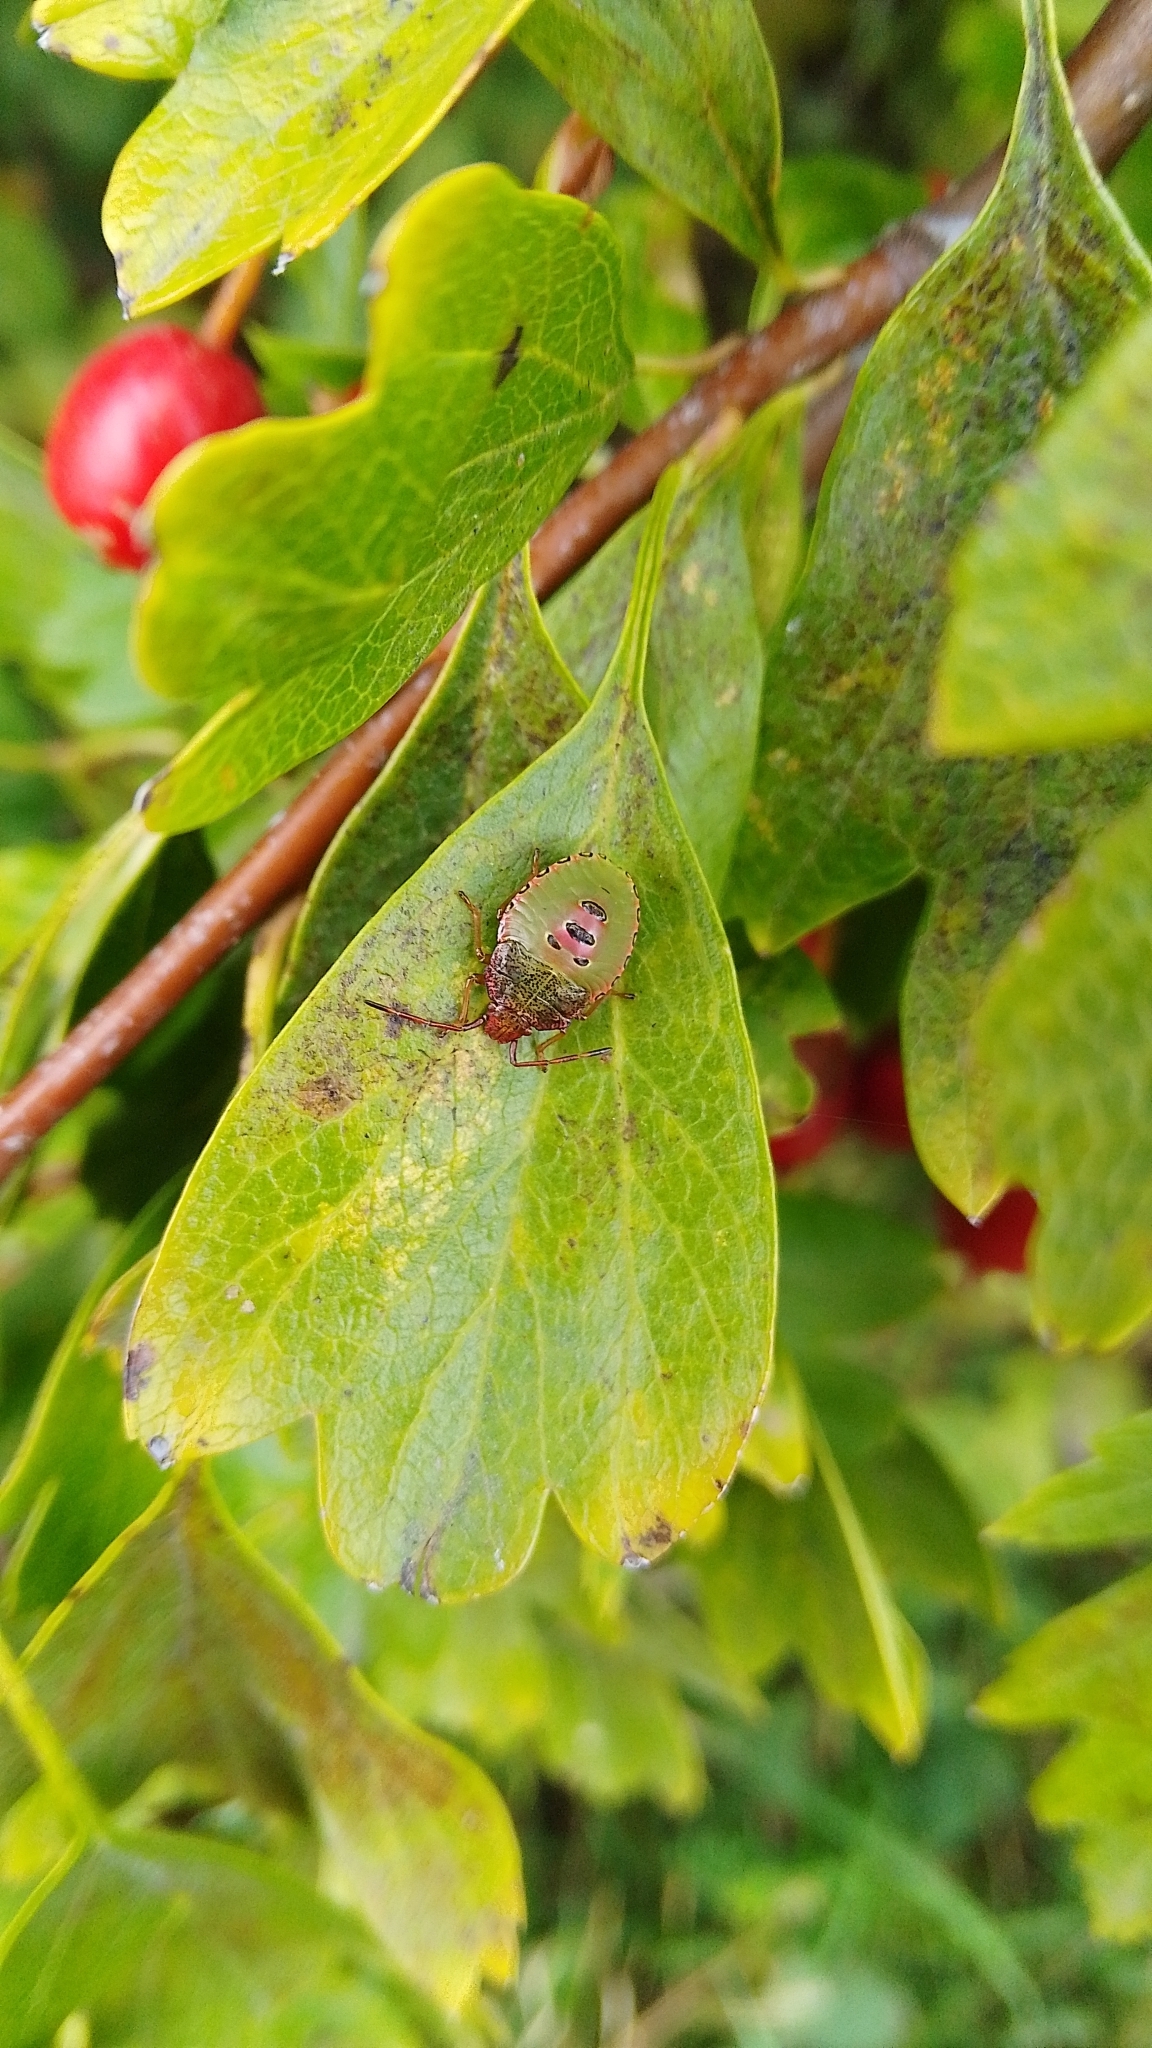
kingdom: Animalia
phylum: Arthropoda
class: Insecta
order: Hemiptera
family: Acanthosomatidae
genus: Acanthosoma
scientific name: Acanthosoma haemorrhoidale
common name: Hawthorn shieldbug
